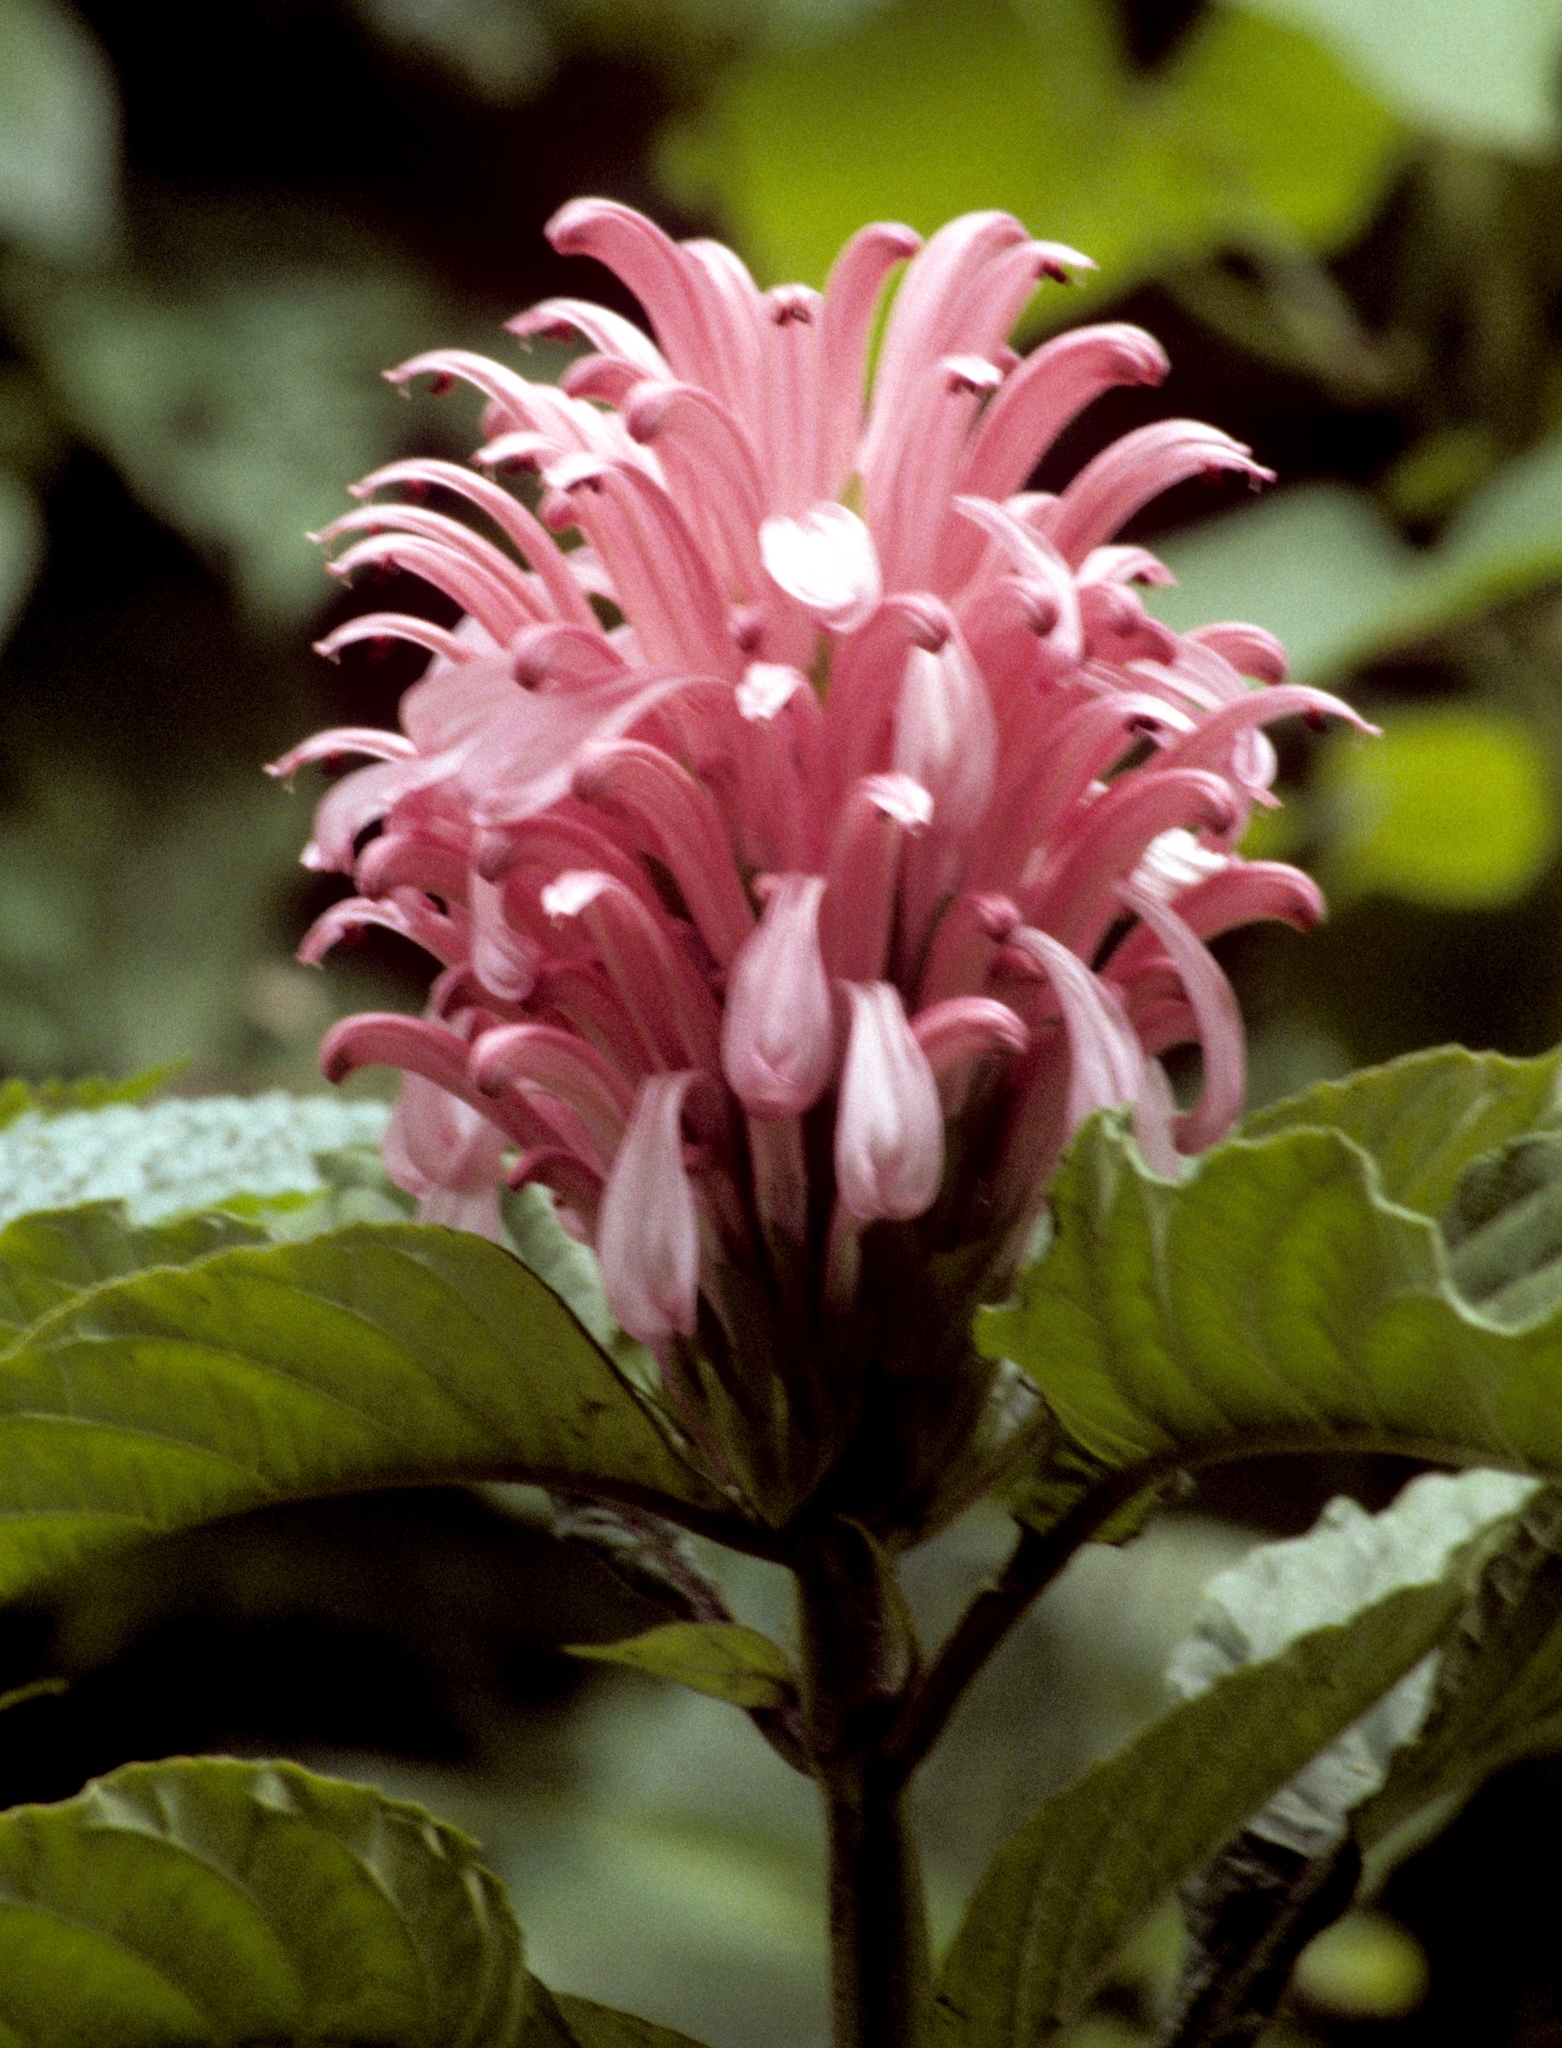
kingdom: Plantae
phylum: Tracheophyta
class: Magnoliopsida
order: Lamiales
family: Acanthaceae
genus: Justicia
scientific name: Justicia carnea
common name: Brazilian-plume
